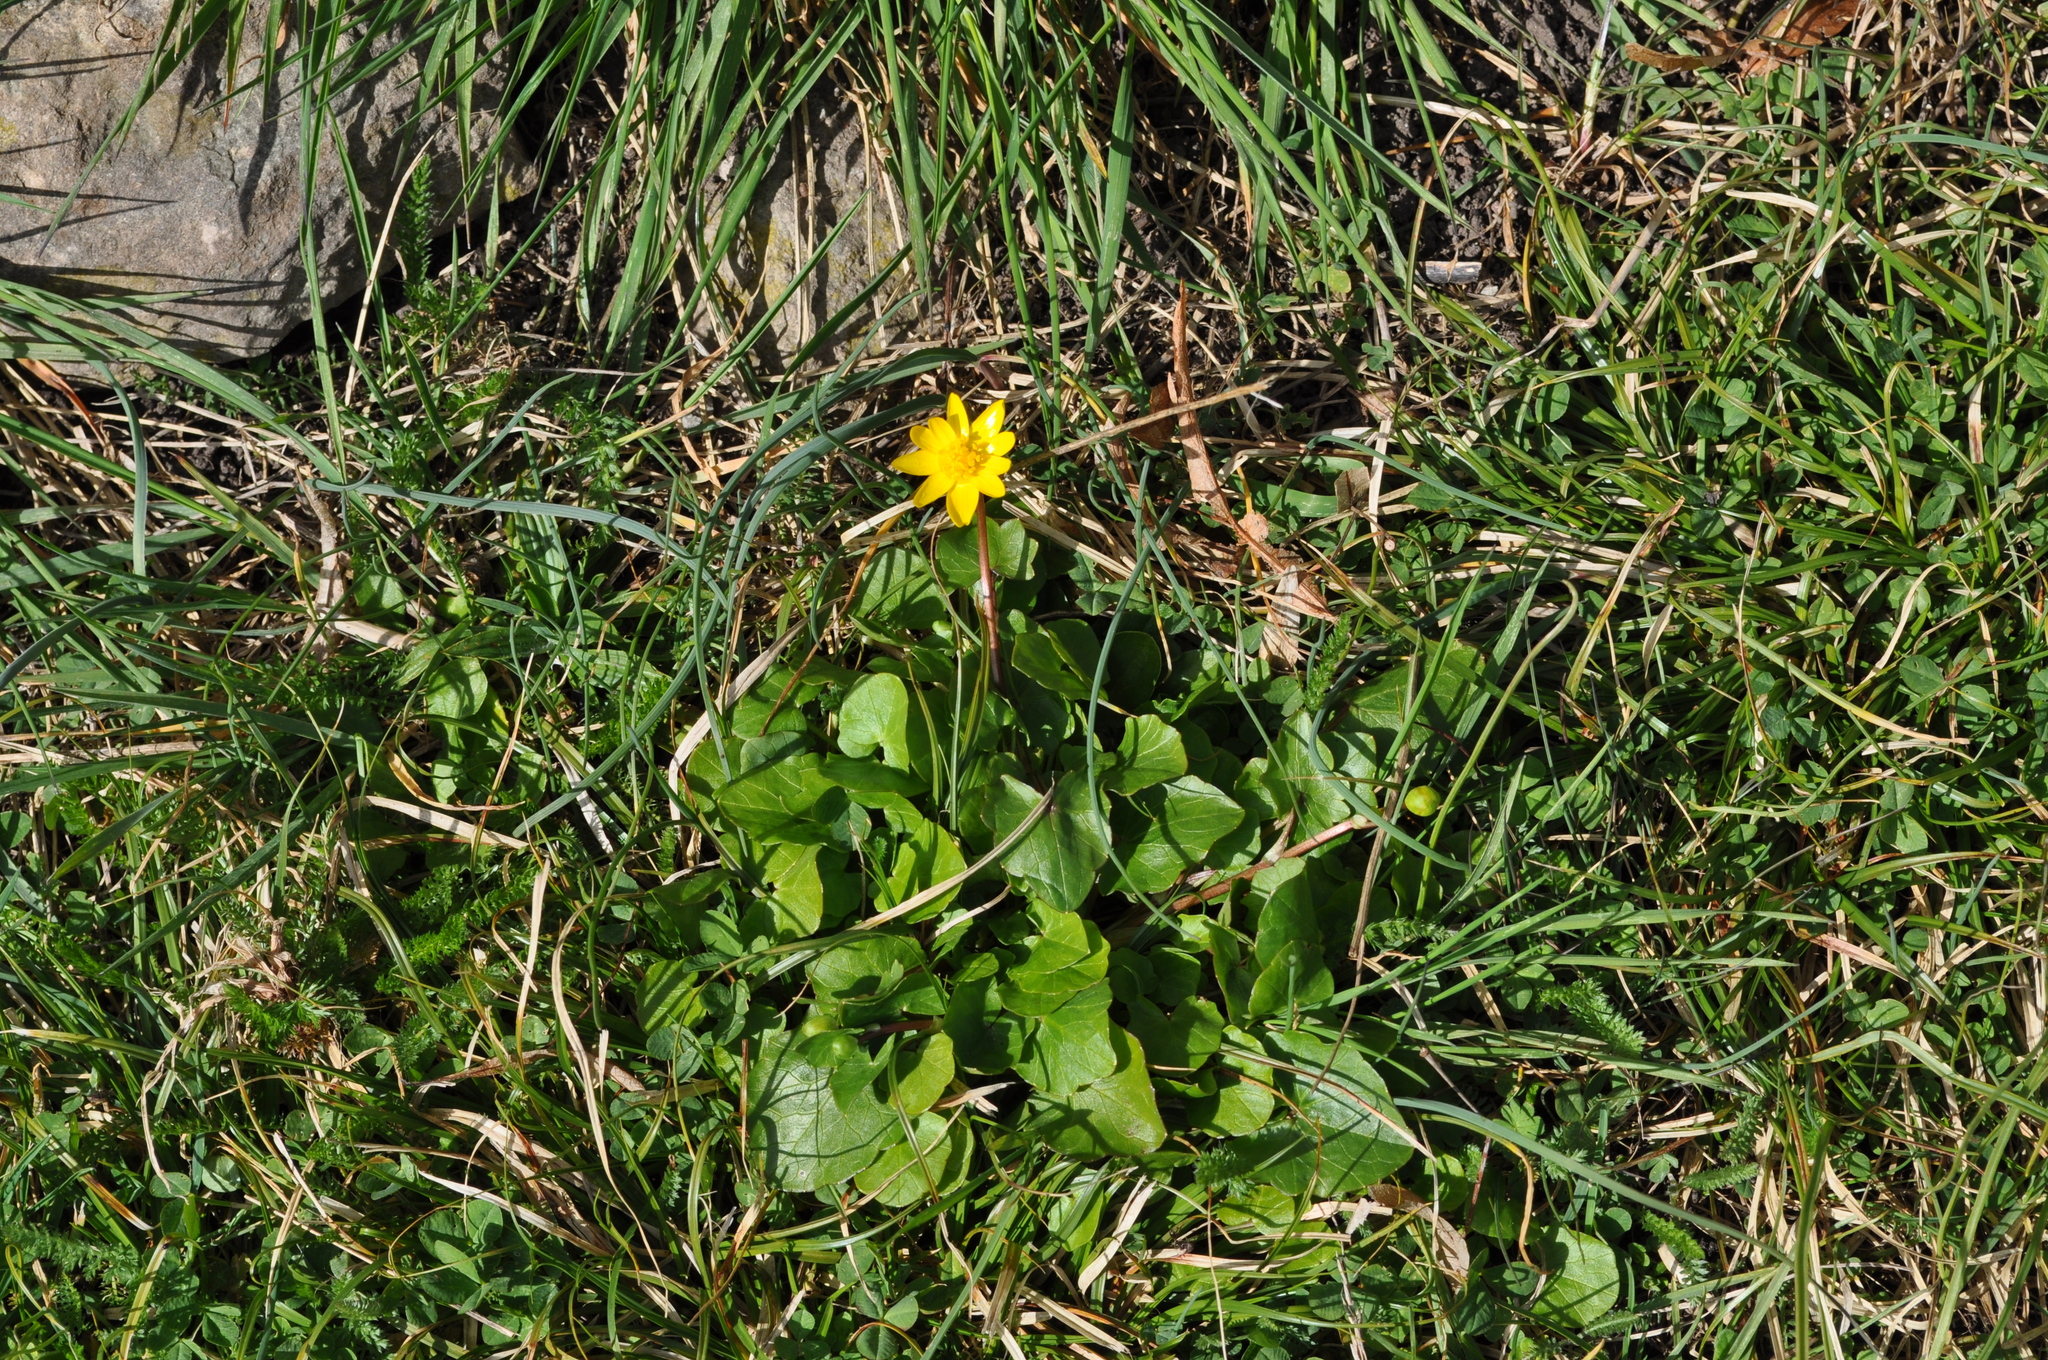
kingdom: Plantae
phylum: Tracheophyta
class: Magnoliopsida
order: Ranunculales
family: Ranunculaceae
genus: Ficaria
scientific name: Ficaria verna
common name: Lesser celandine
